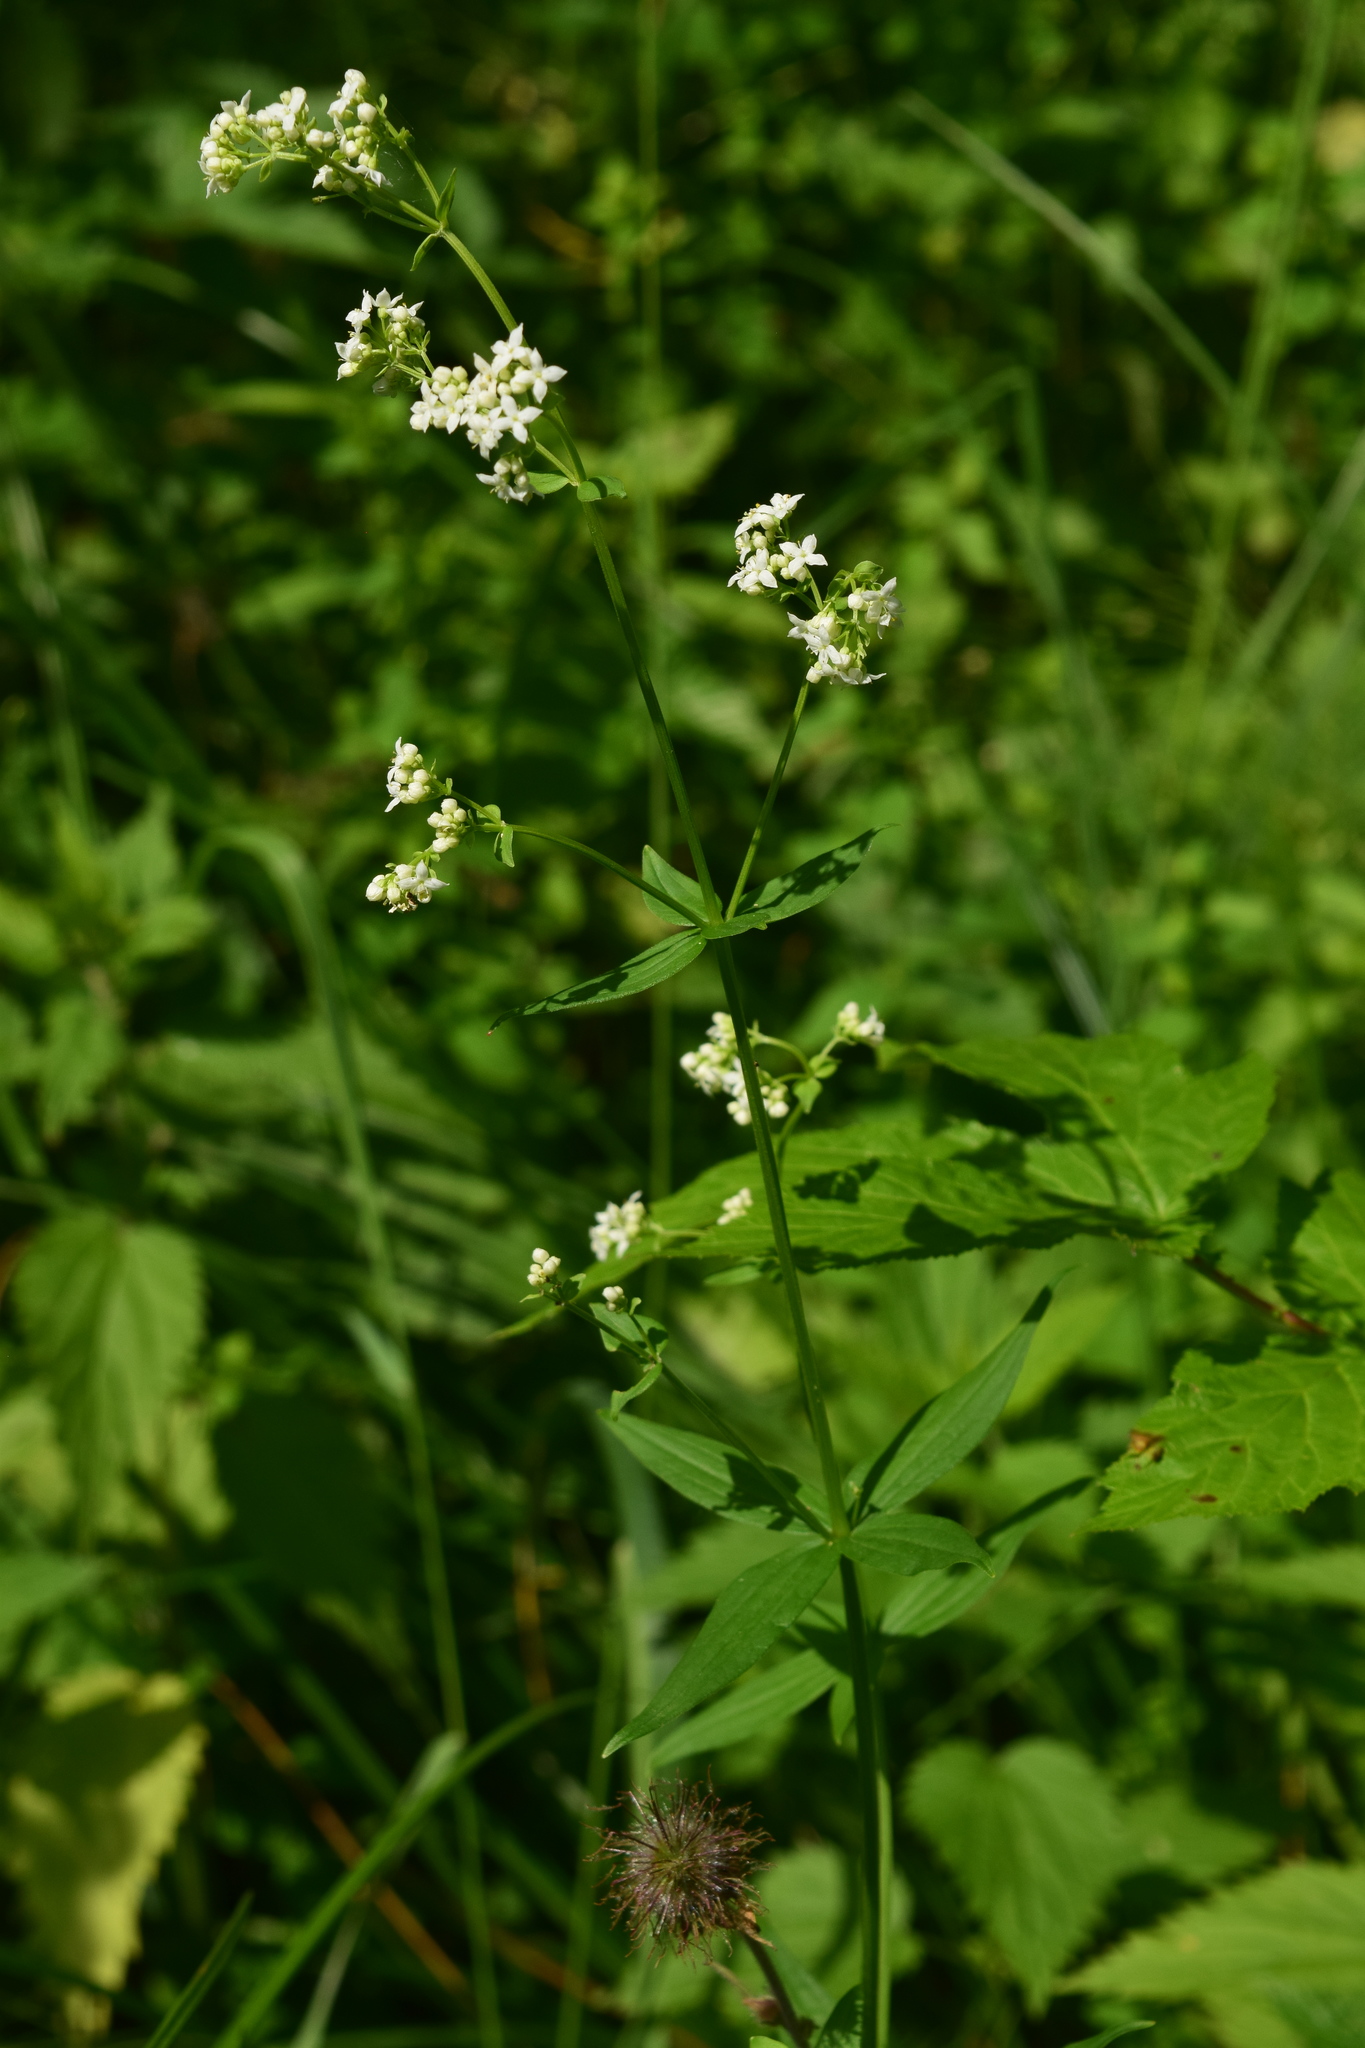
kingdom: Plantae
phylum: Tracheophyta
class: Magnoliopsida
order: Gentianales
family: Rubiaceae
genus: Galium
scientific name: Galium boreale
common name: Northern bedstraw
